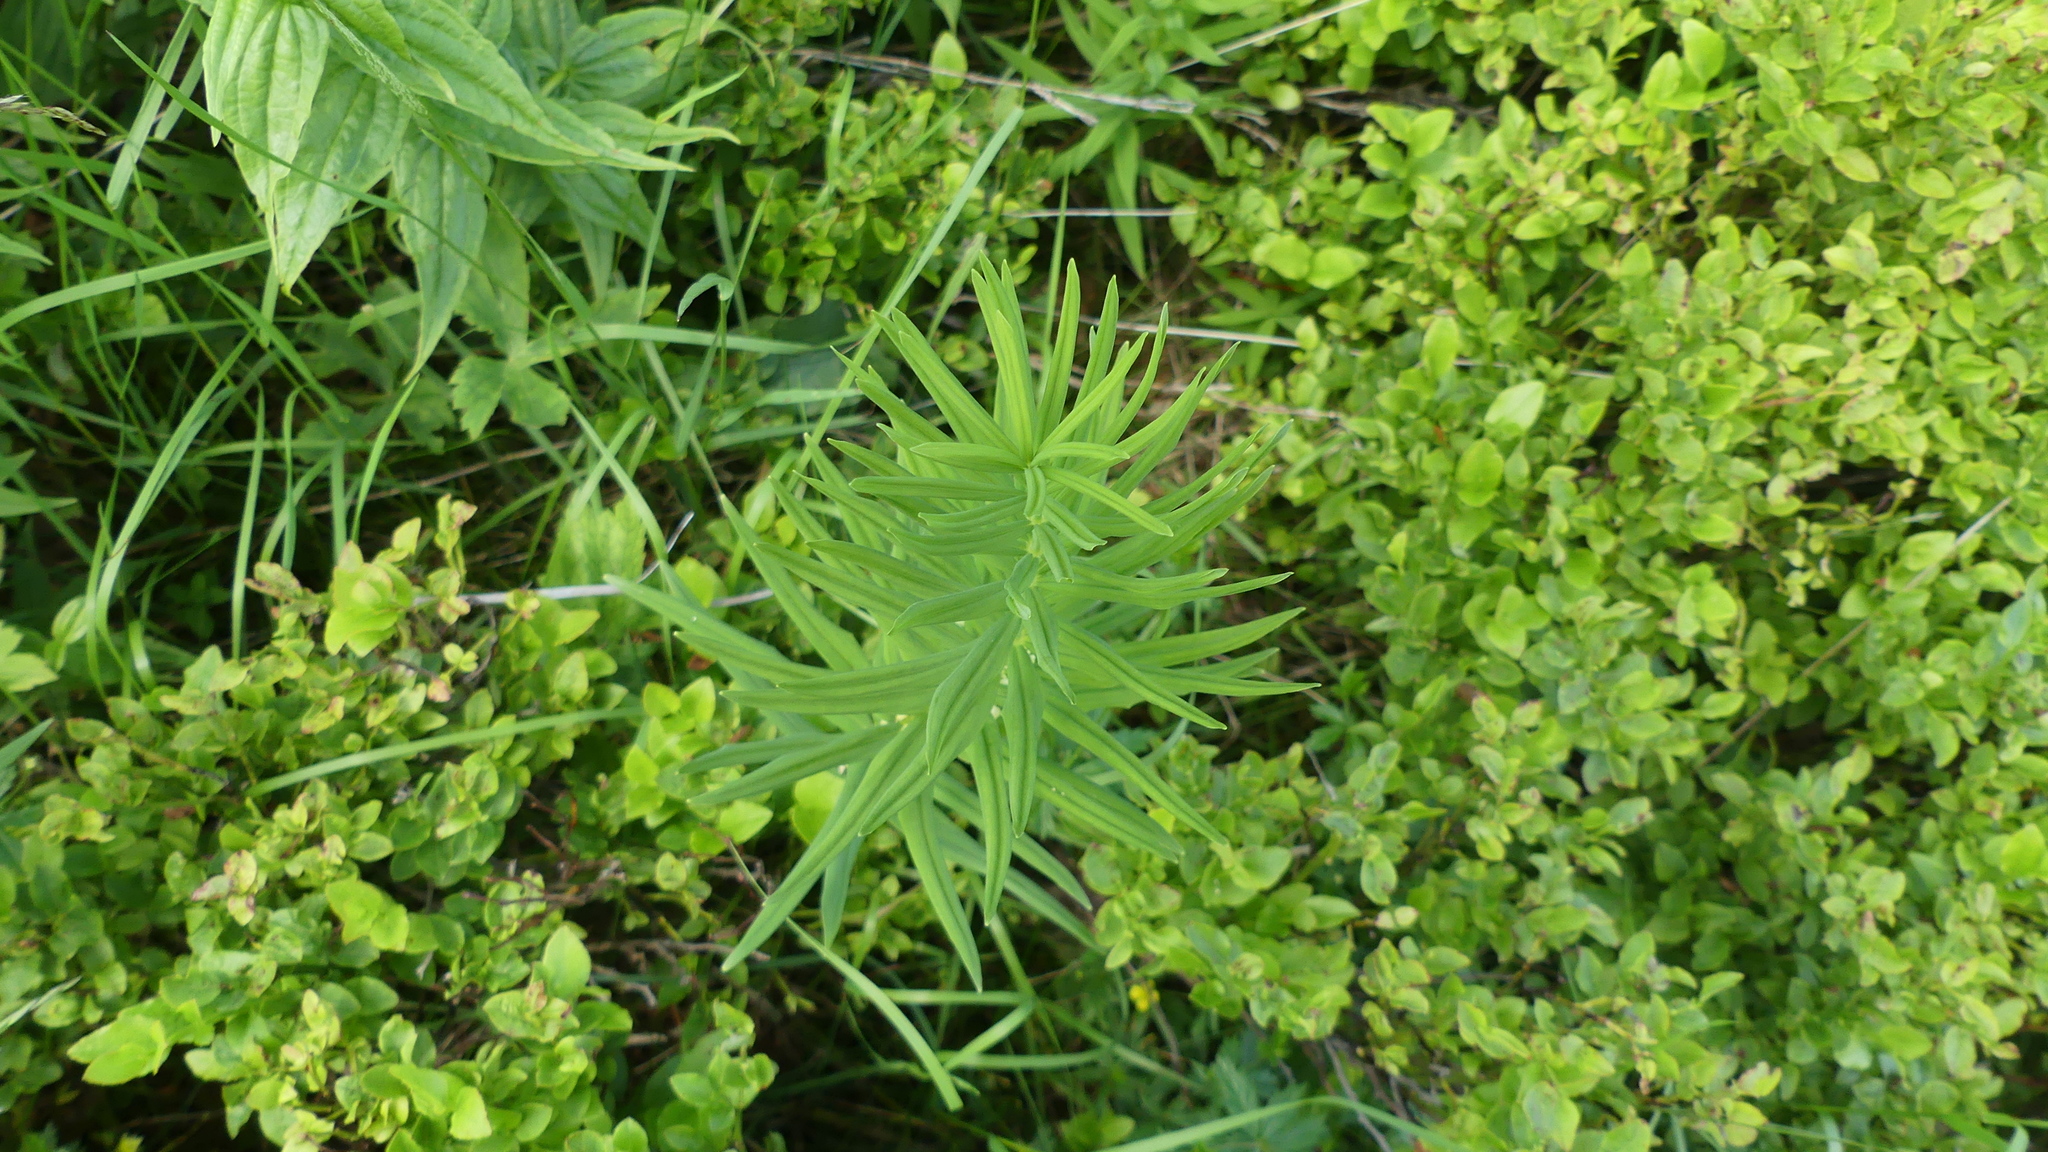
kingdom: Plantae
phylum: Tracheophyta
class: Liliopsida
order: Asparagales
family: Asparagaceae
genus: Polygonatum
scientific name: Polygonatum verticillatum
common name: Whorled solomon's-seal
